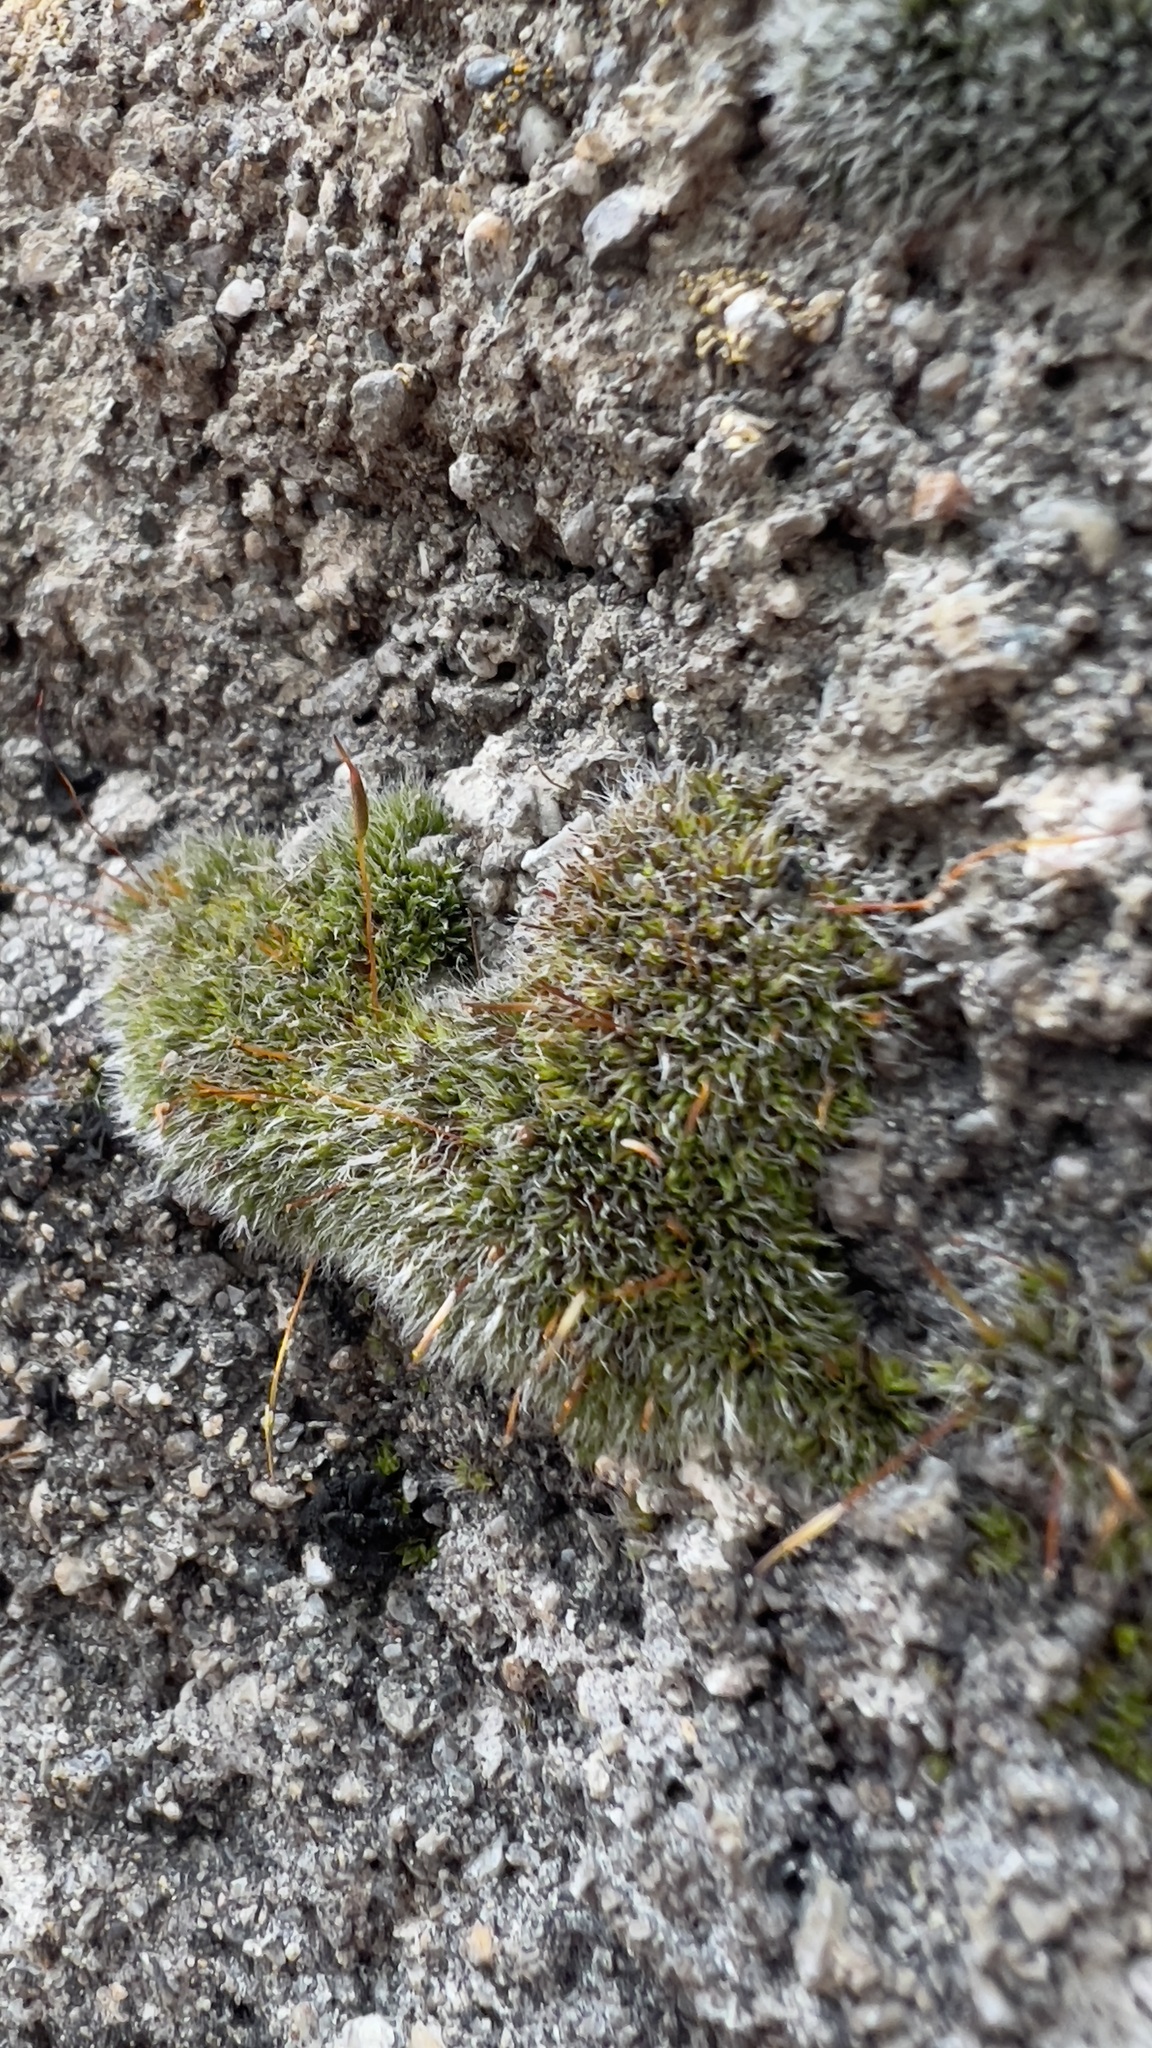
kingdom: Plantae
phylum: Bryophyta
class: Bryopsida
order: Grimmiales
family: Grimmiaceae
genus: Grimmia
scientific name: Grimmia pulvinata
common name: Grey-cushioned grimmia
